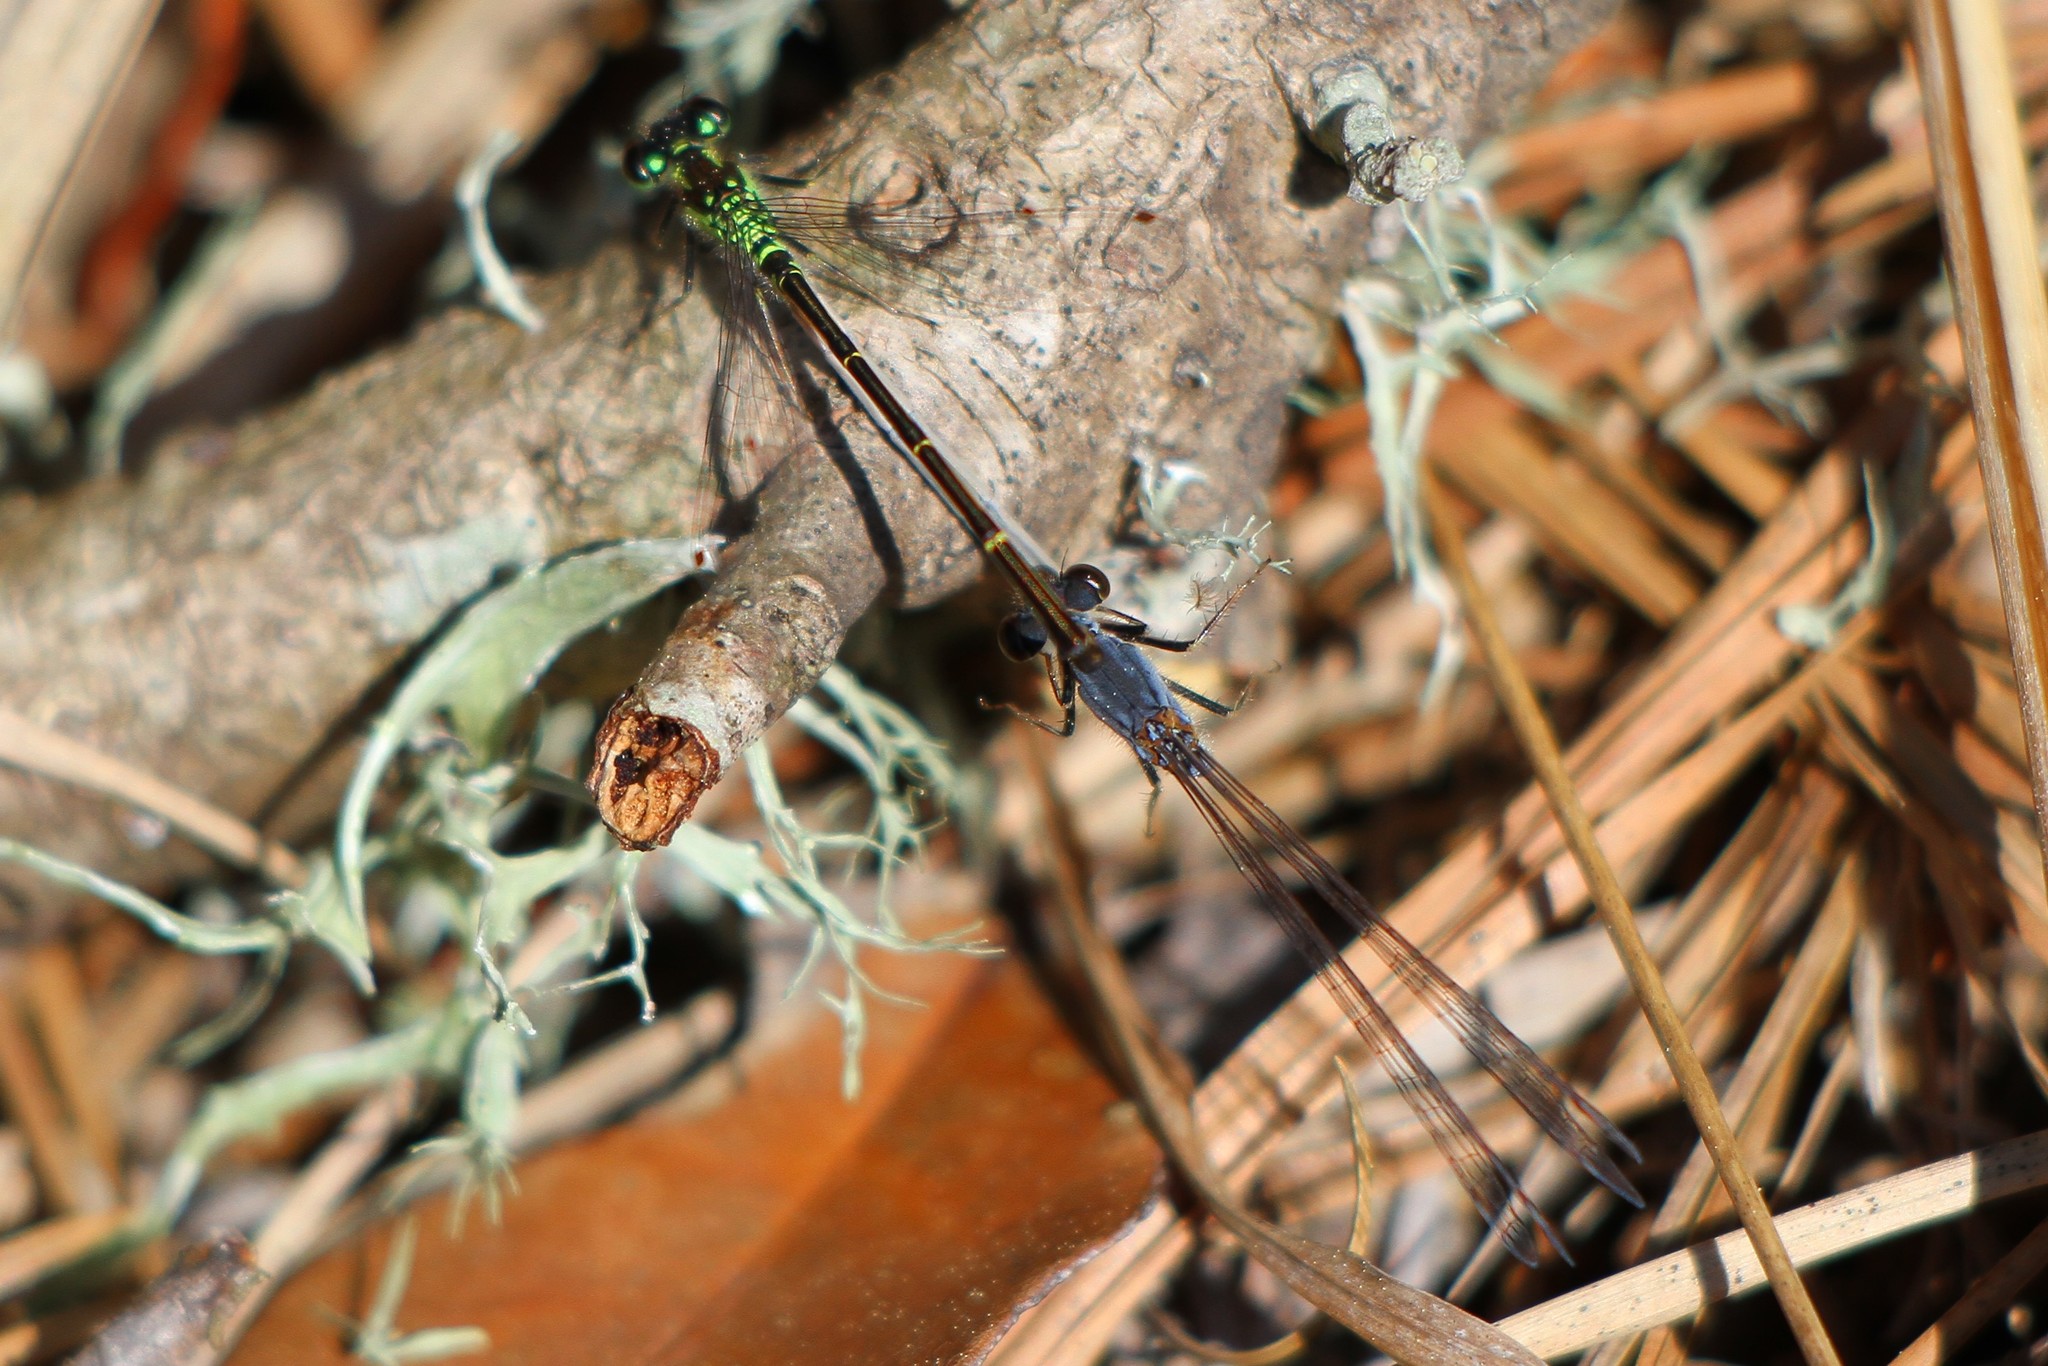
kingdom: Animalia
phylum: Arthropoda
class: Insecta
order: Odonata
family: Coenagrionidae
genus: Ischnura
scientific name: Ischnura posita
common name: Fragile forktail
